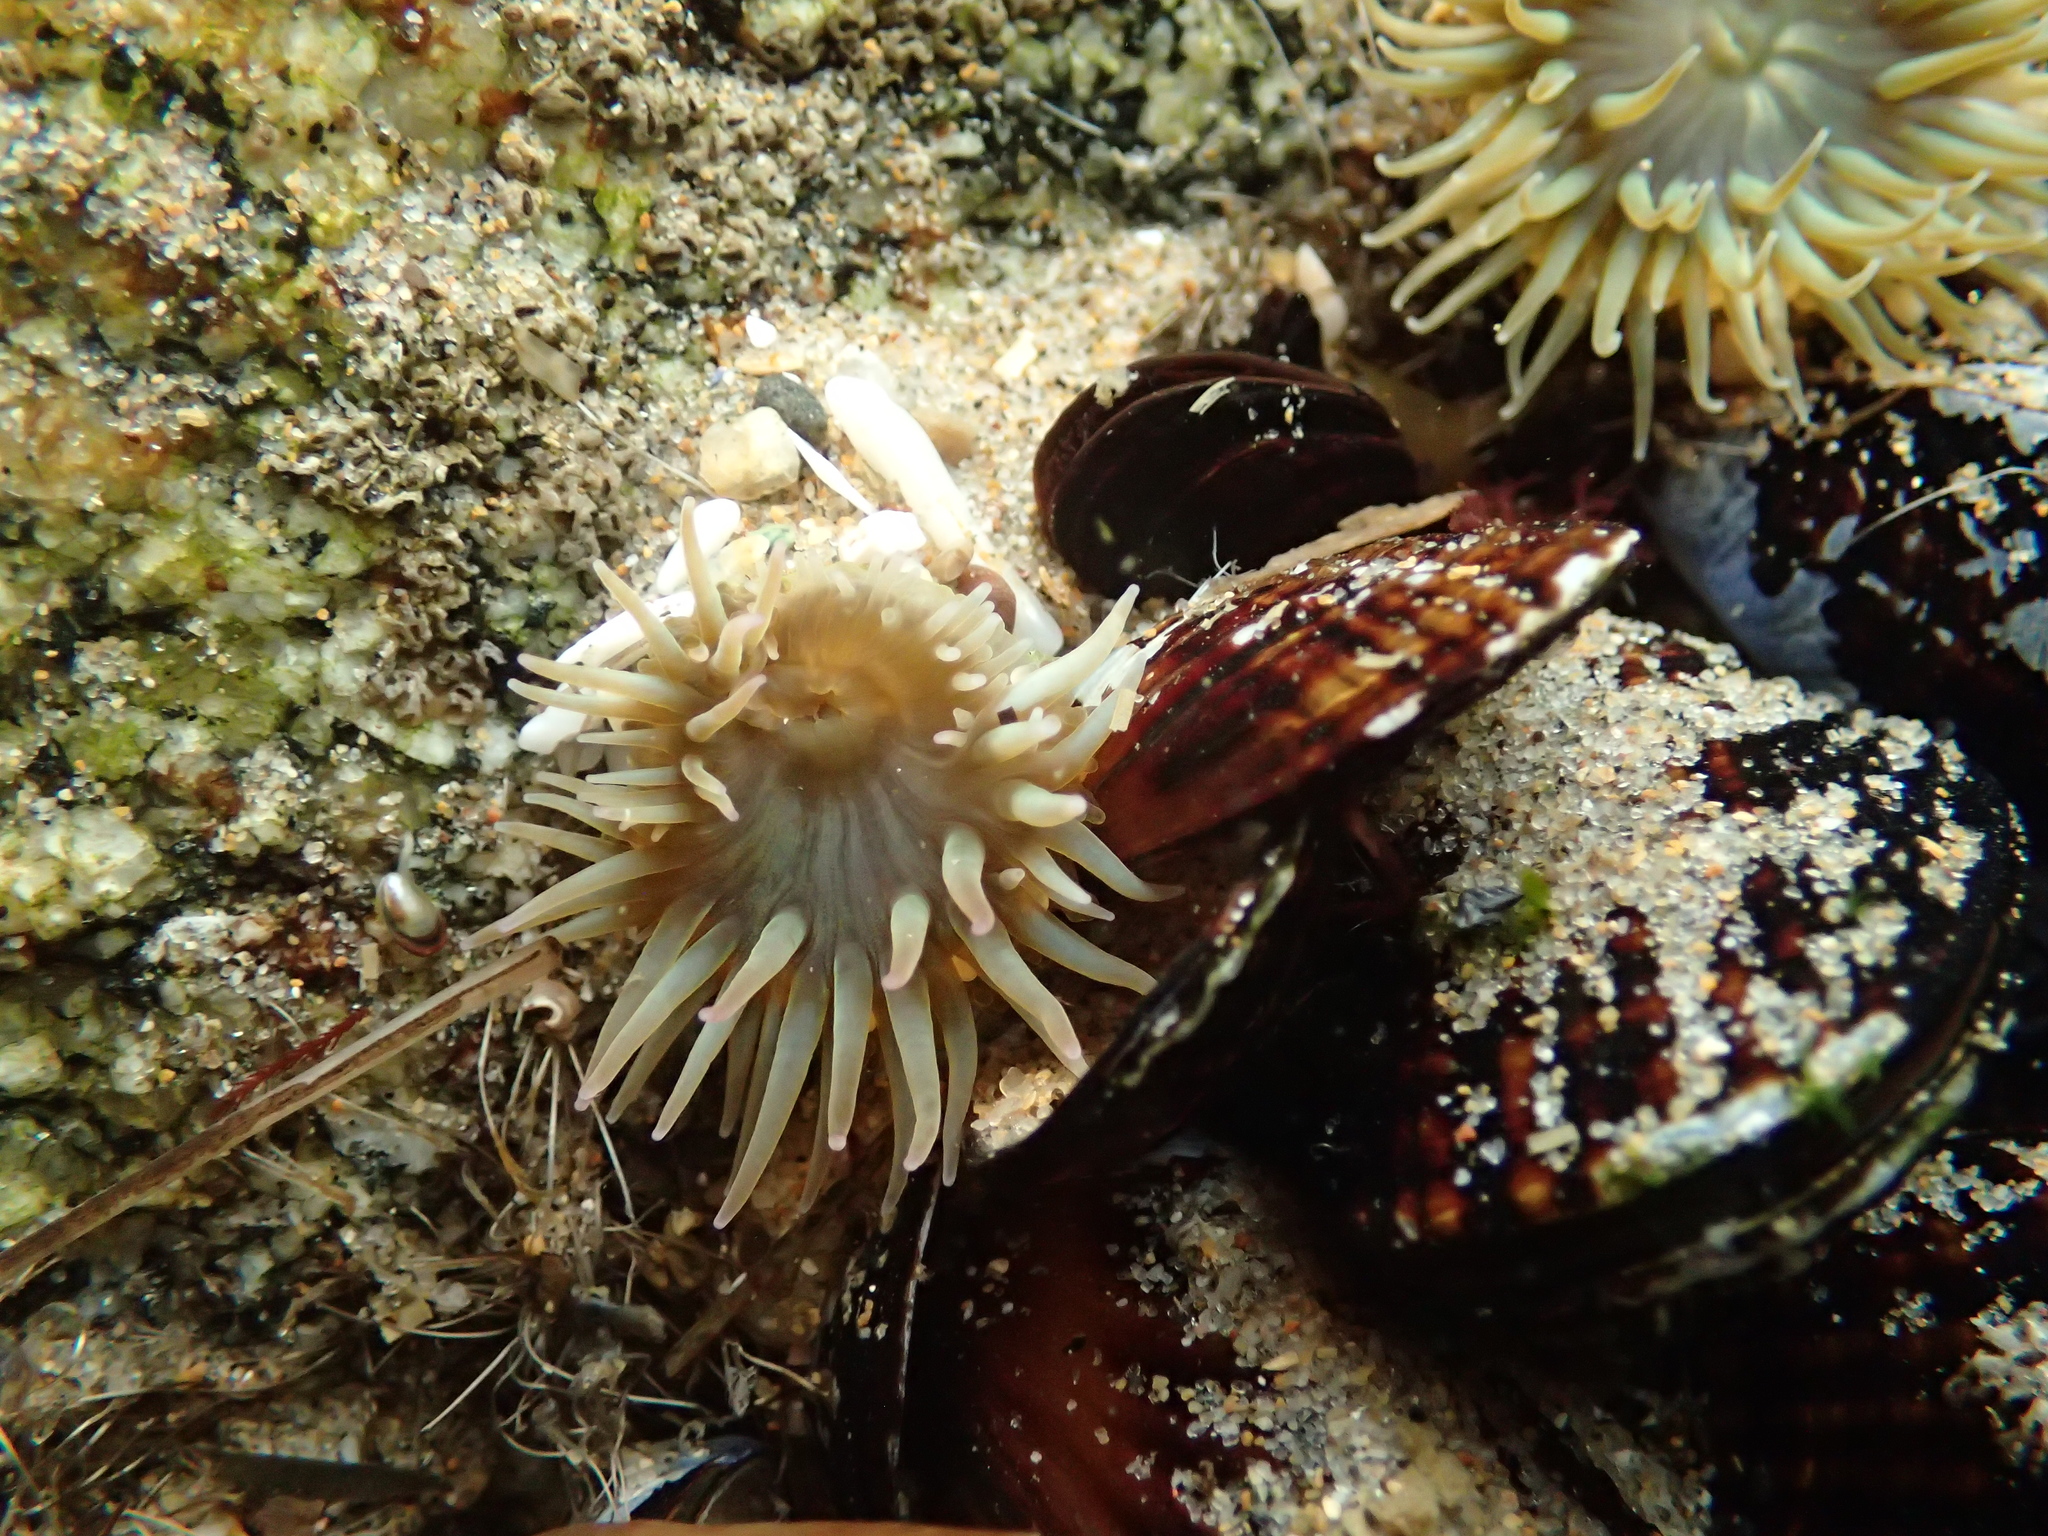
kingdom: Animalia
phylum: Cnidaria
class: Anthozoa
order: Actiniaria
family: Actiniidae
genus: Anthopleura
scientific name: Anthopleura elegantissima
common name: Clonal anemone
